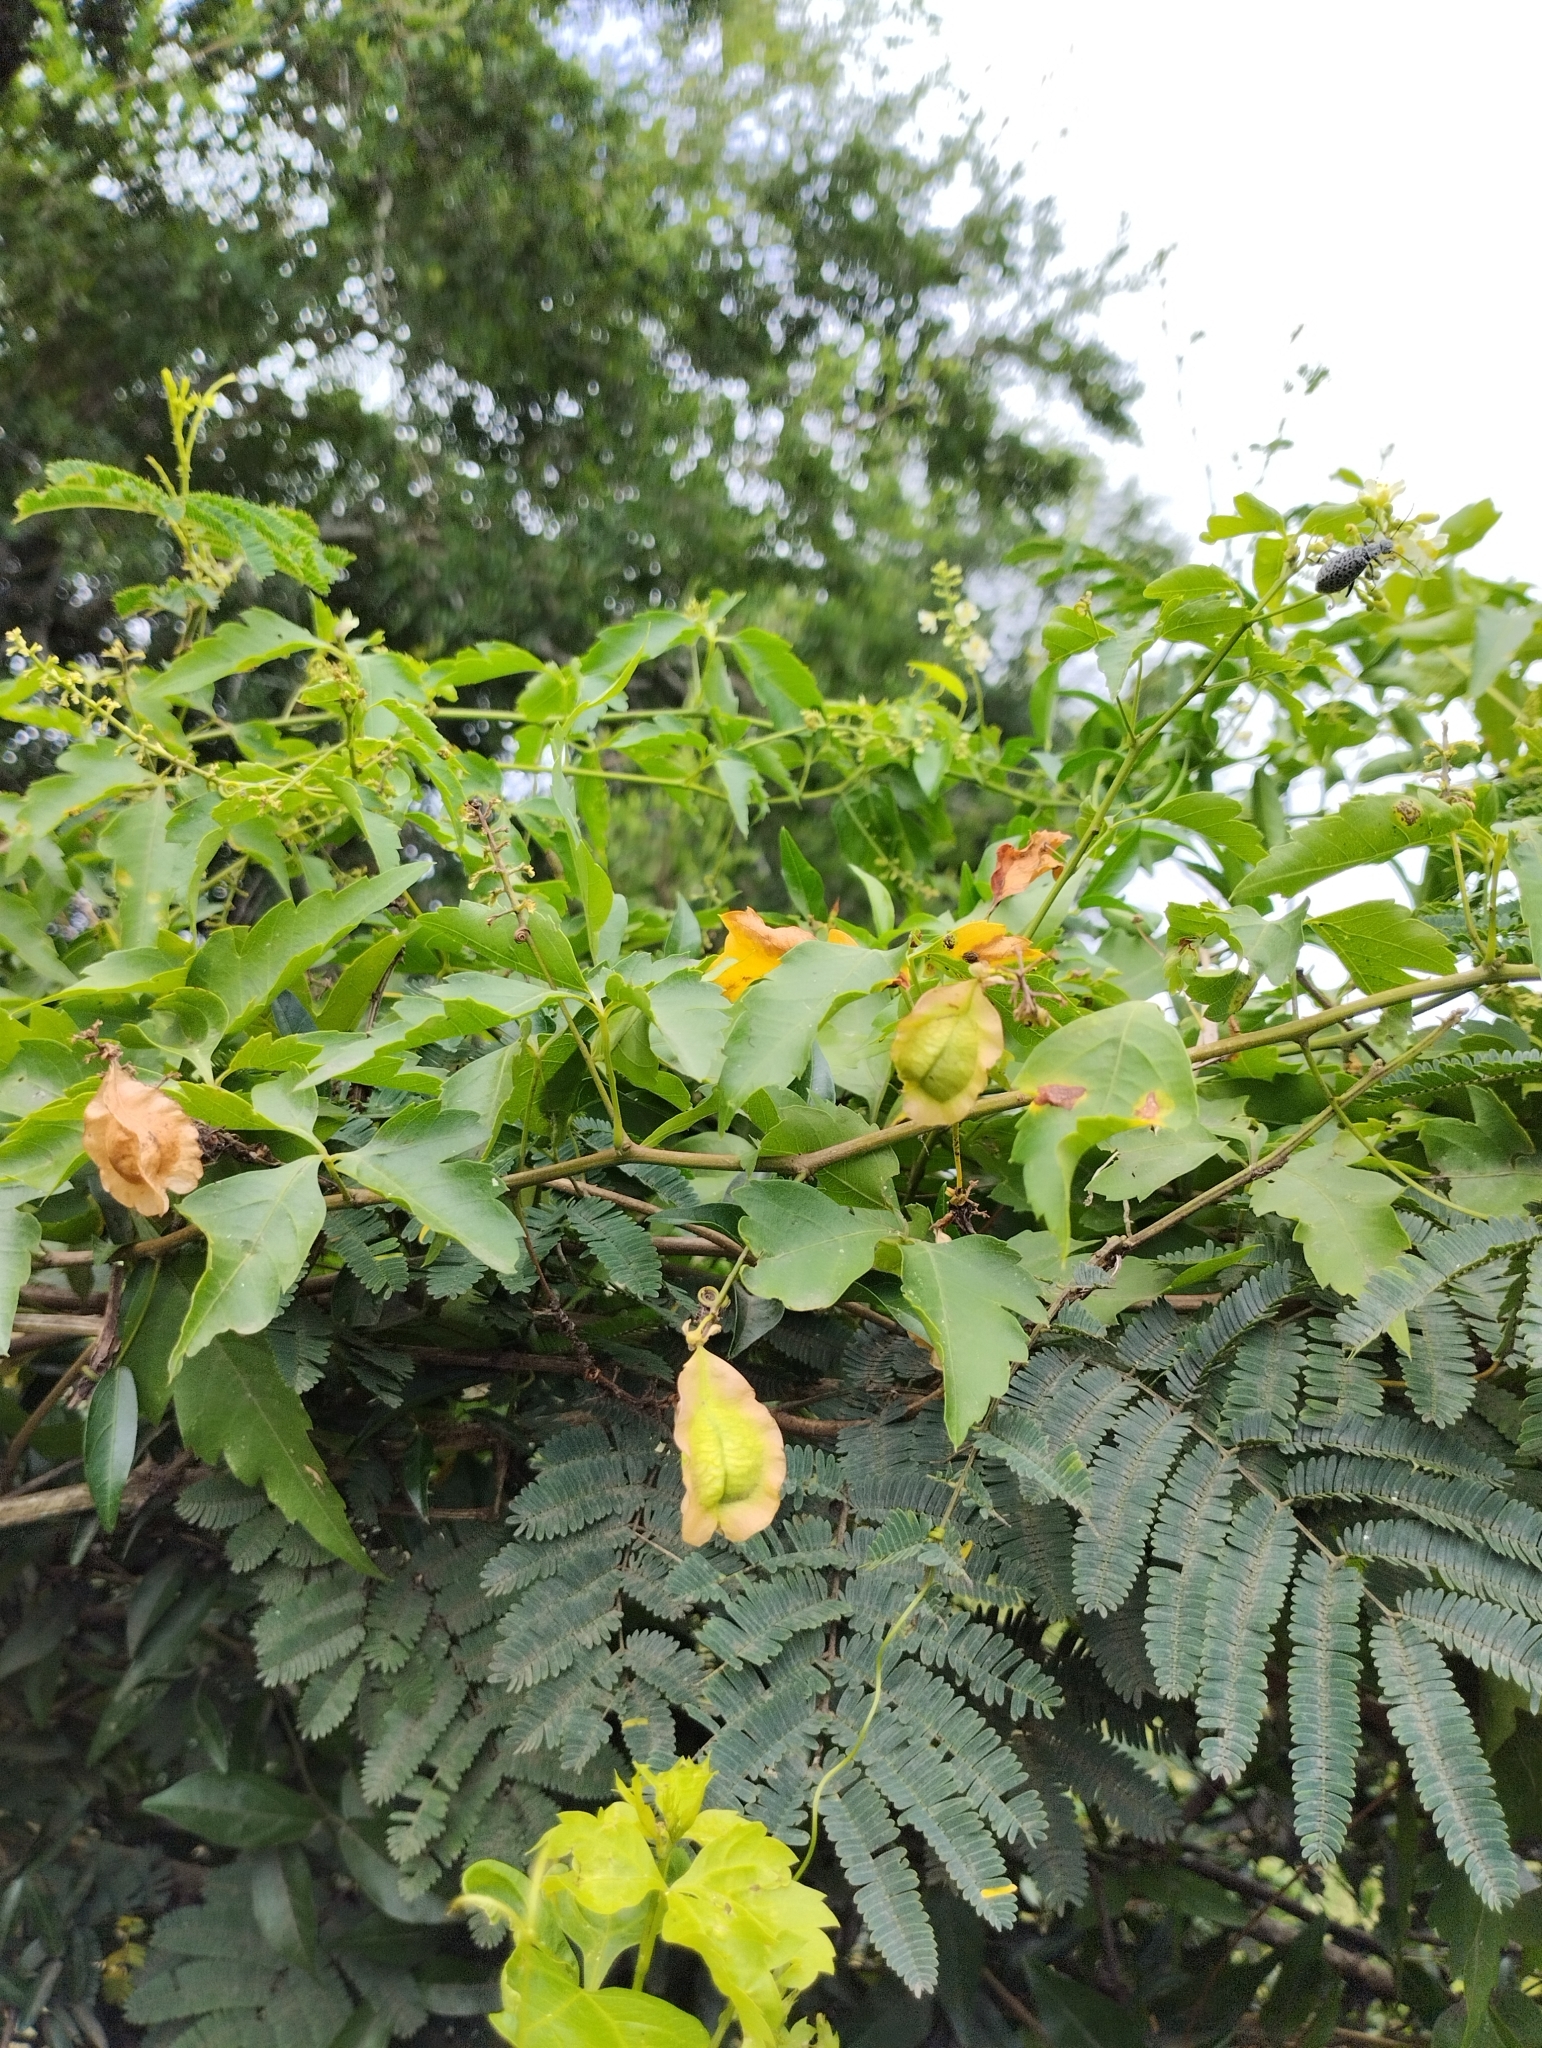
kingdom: Plantae
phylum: Tracheophyta
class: Magnoliopsida
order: Sapindales
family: Sapindaceae
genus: Urvillea
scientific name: Urvillea uniloba
